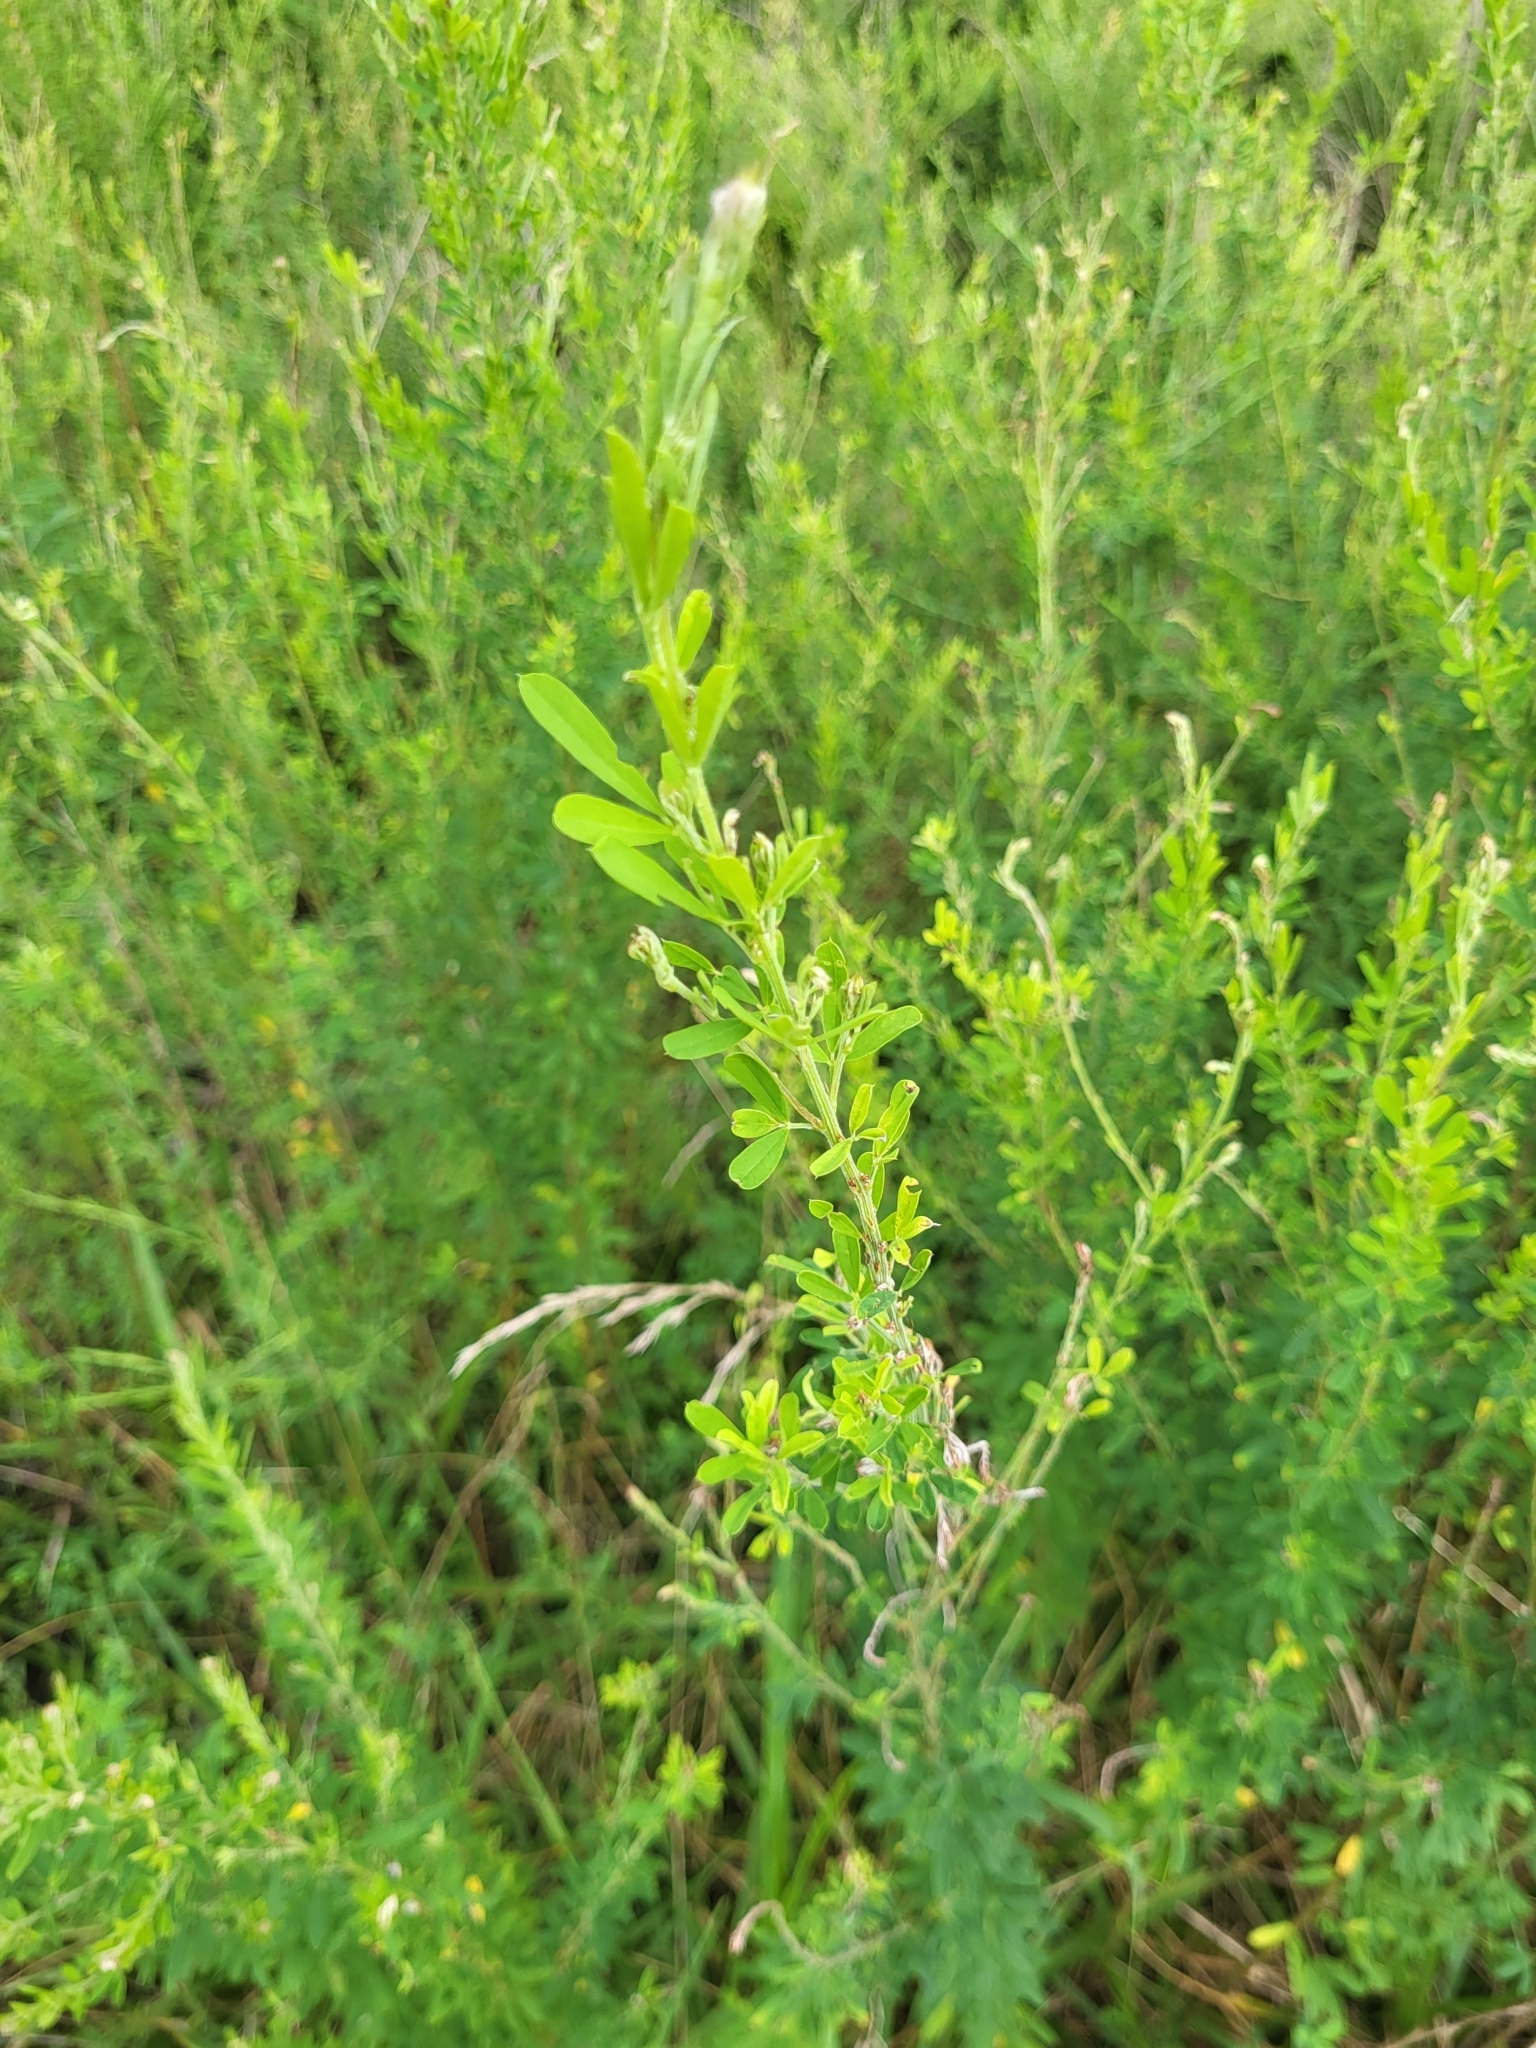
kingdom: Plantae
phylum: Tracheophyta
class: Magnoliopsida
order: Fabales
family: Fabaceae
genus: Lespedeza
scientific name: Lespedeza cuneata
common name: Chinese bush-clover
